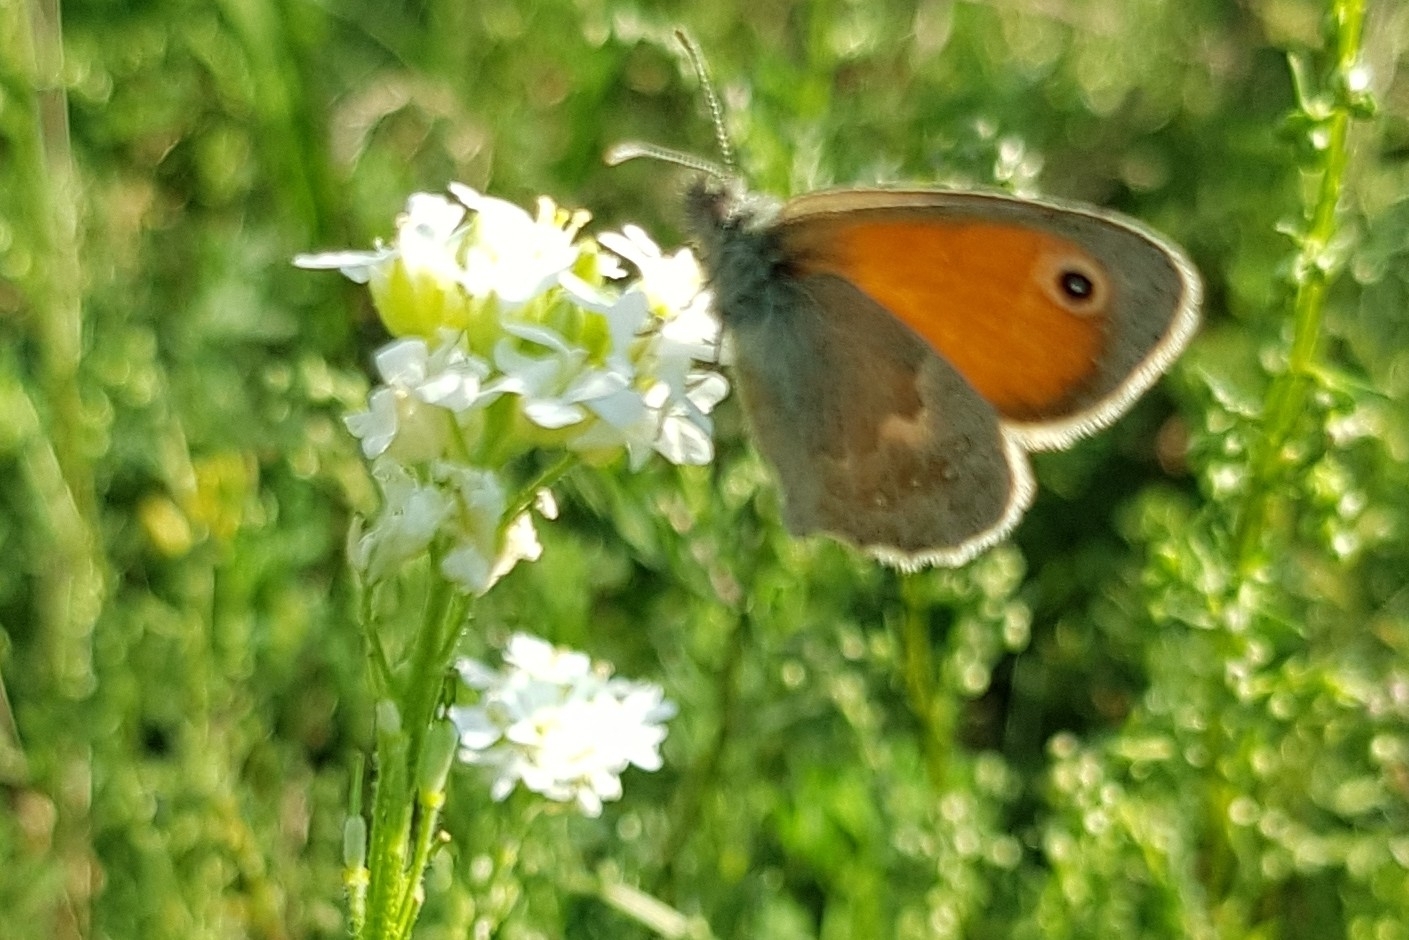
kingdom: Animalia
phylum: Arthropoda
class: Insecta
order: Lepidoptera
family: Nymphalidae
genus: Coenonympha
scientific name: Coenonympha pamphilus
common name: Small heath
